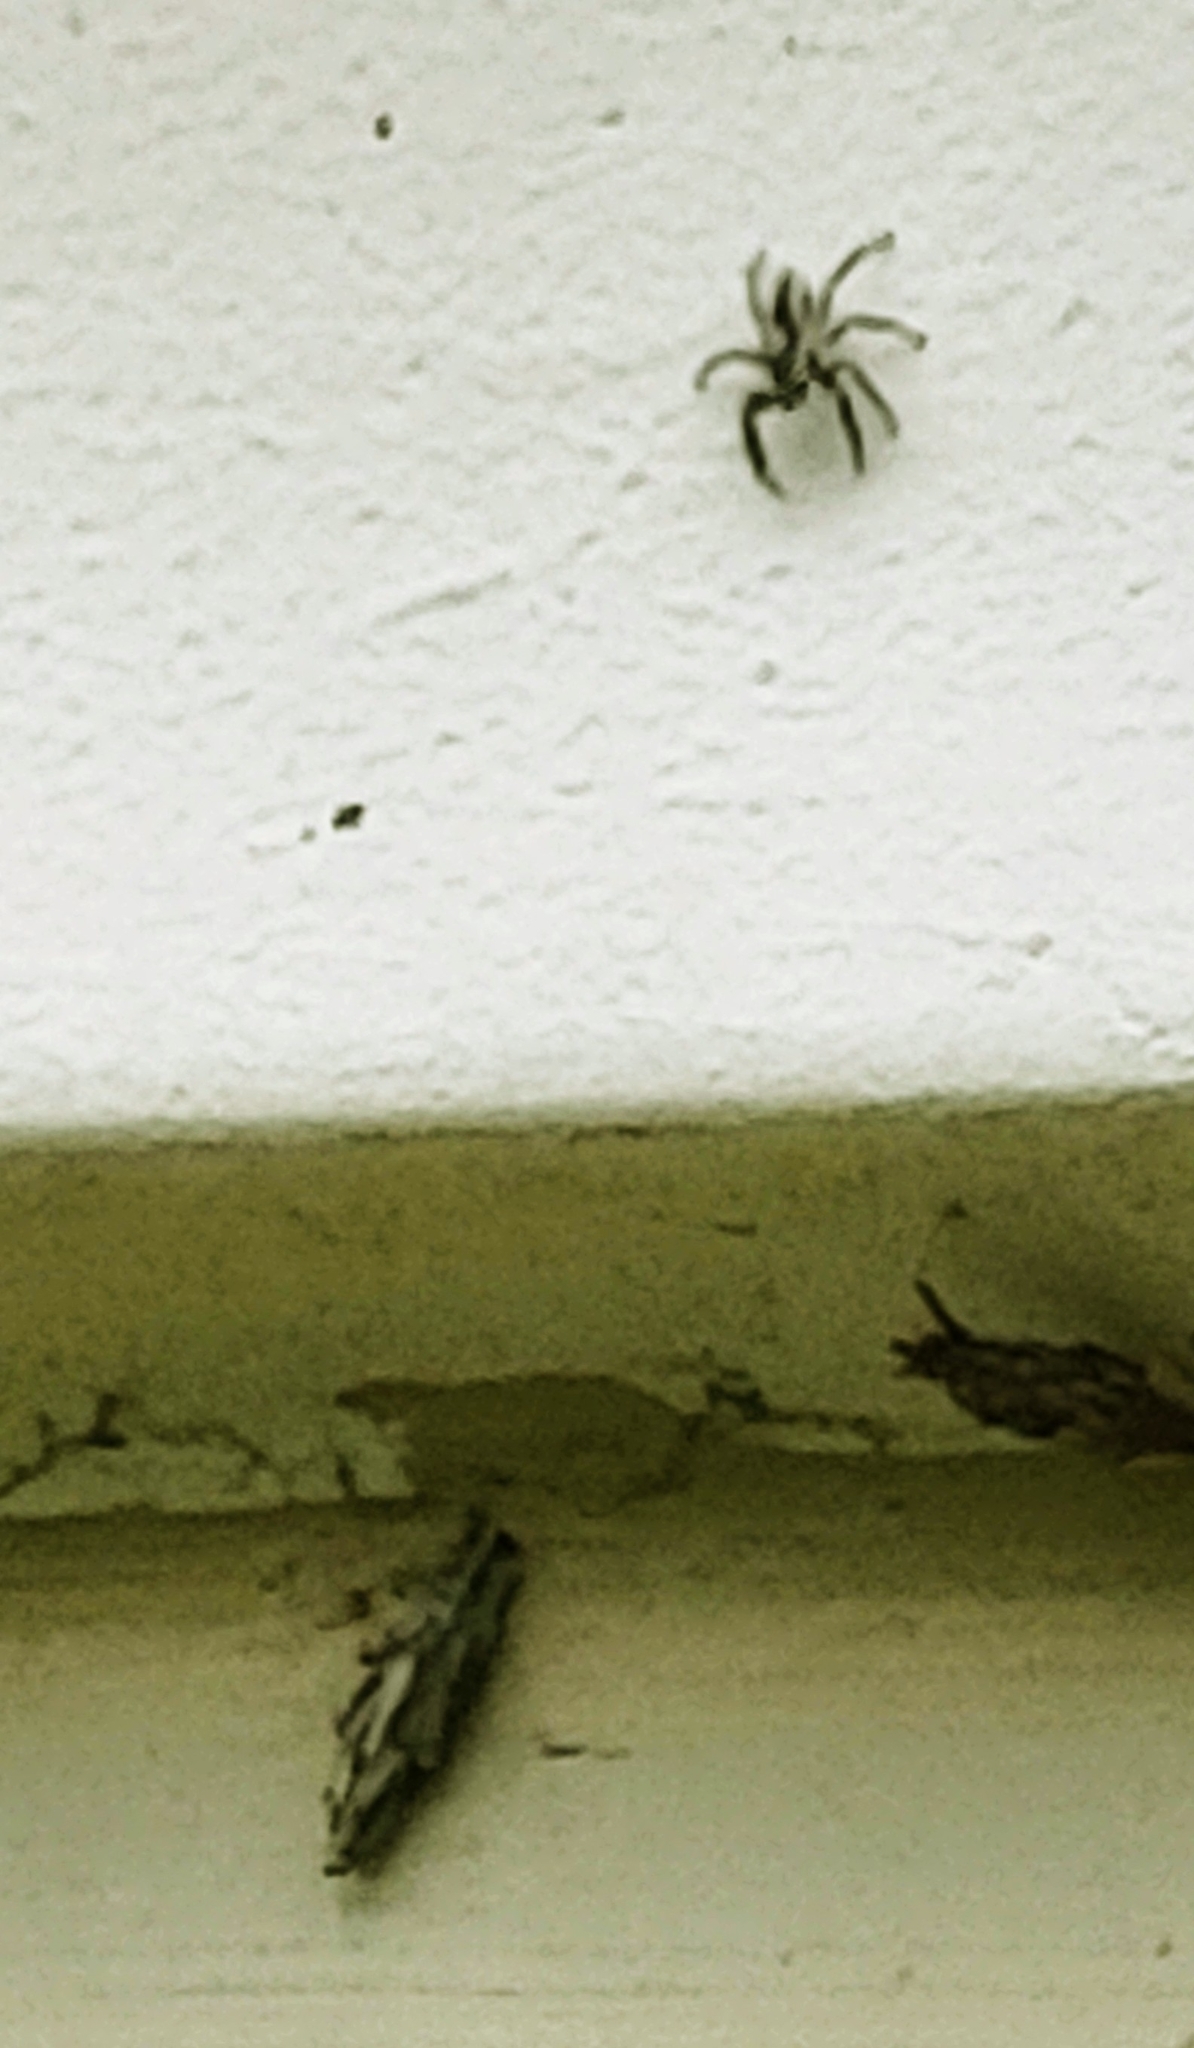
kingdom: Animalia
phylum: Arthropoda
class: Arachnida
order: Araneae
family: Salticidae
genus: Menemerus
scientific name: Menemerus bivittatus
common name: Gray wall jumper
